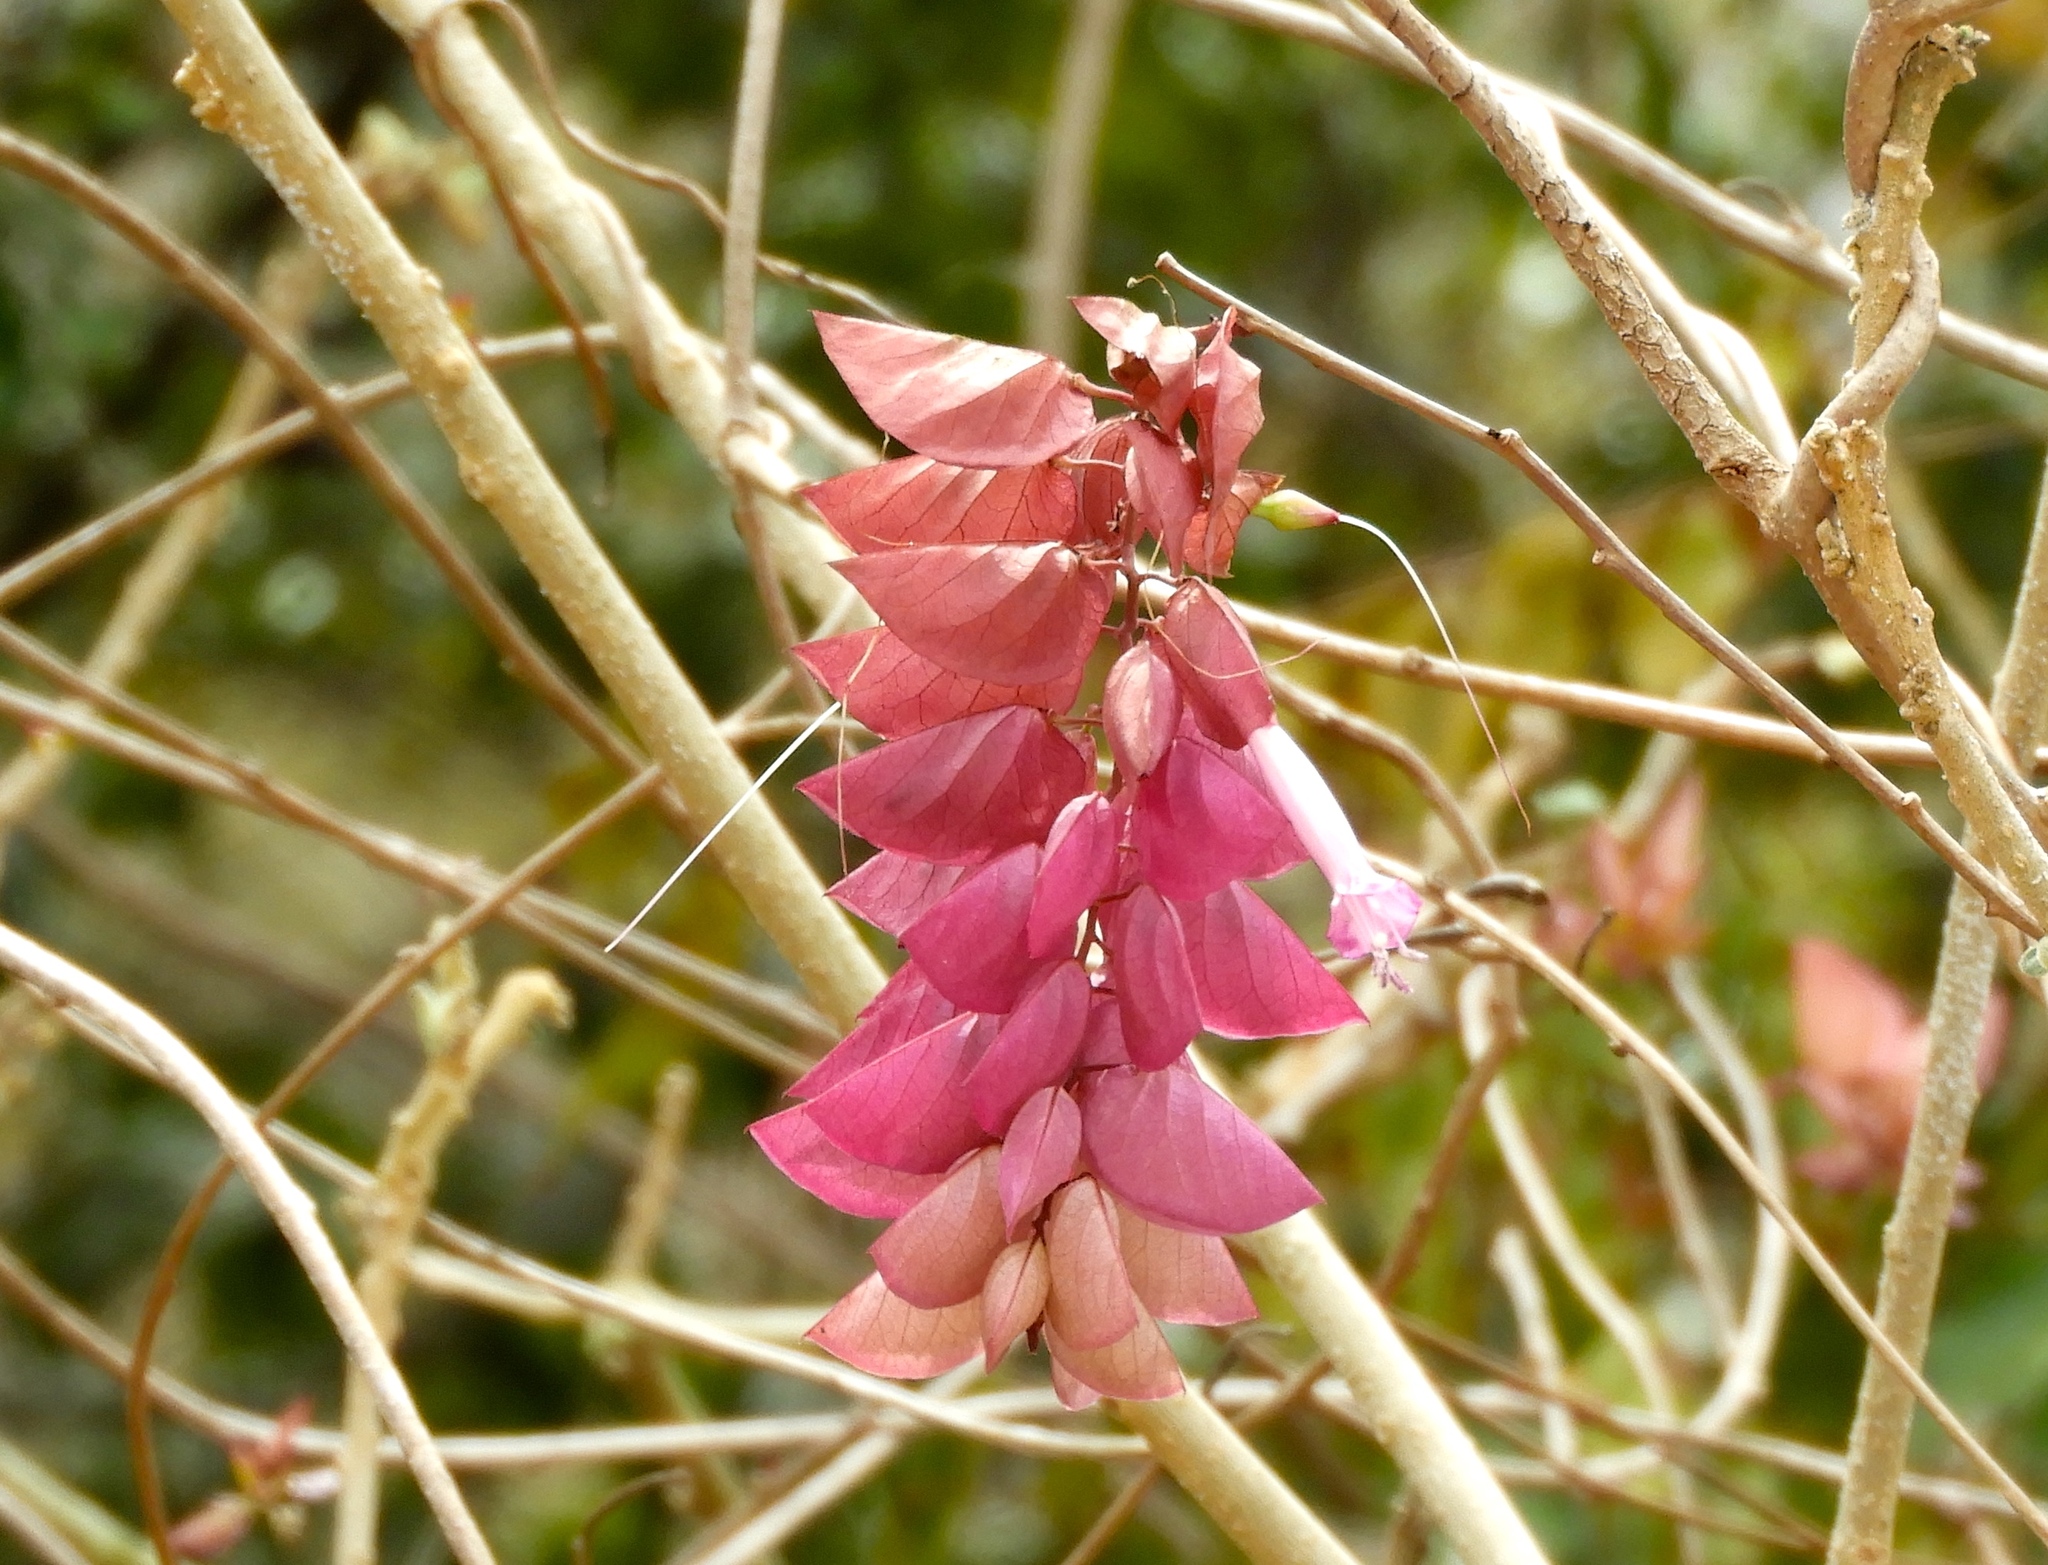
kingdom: Plantae
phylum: Tracheophyta
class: Magnoliopsida
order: Solanales
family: Convolvulaceae
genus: Ipomoea
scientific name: Ipomoea bracteata
